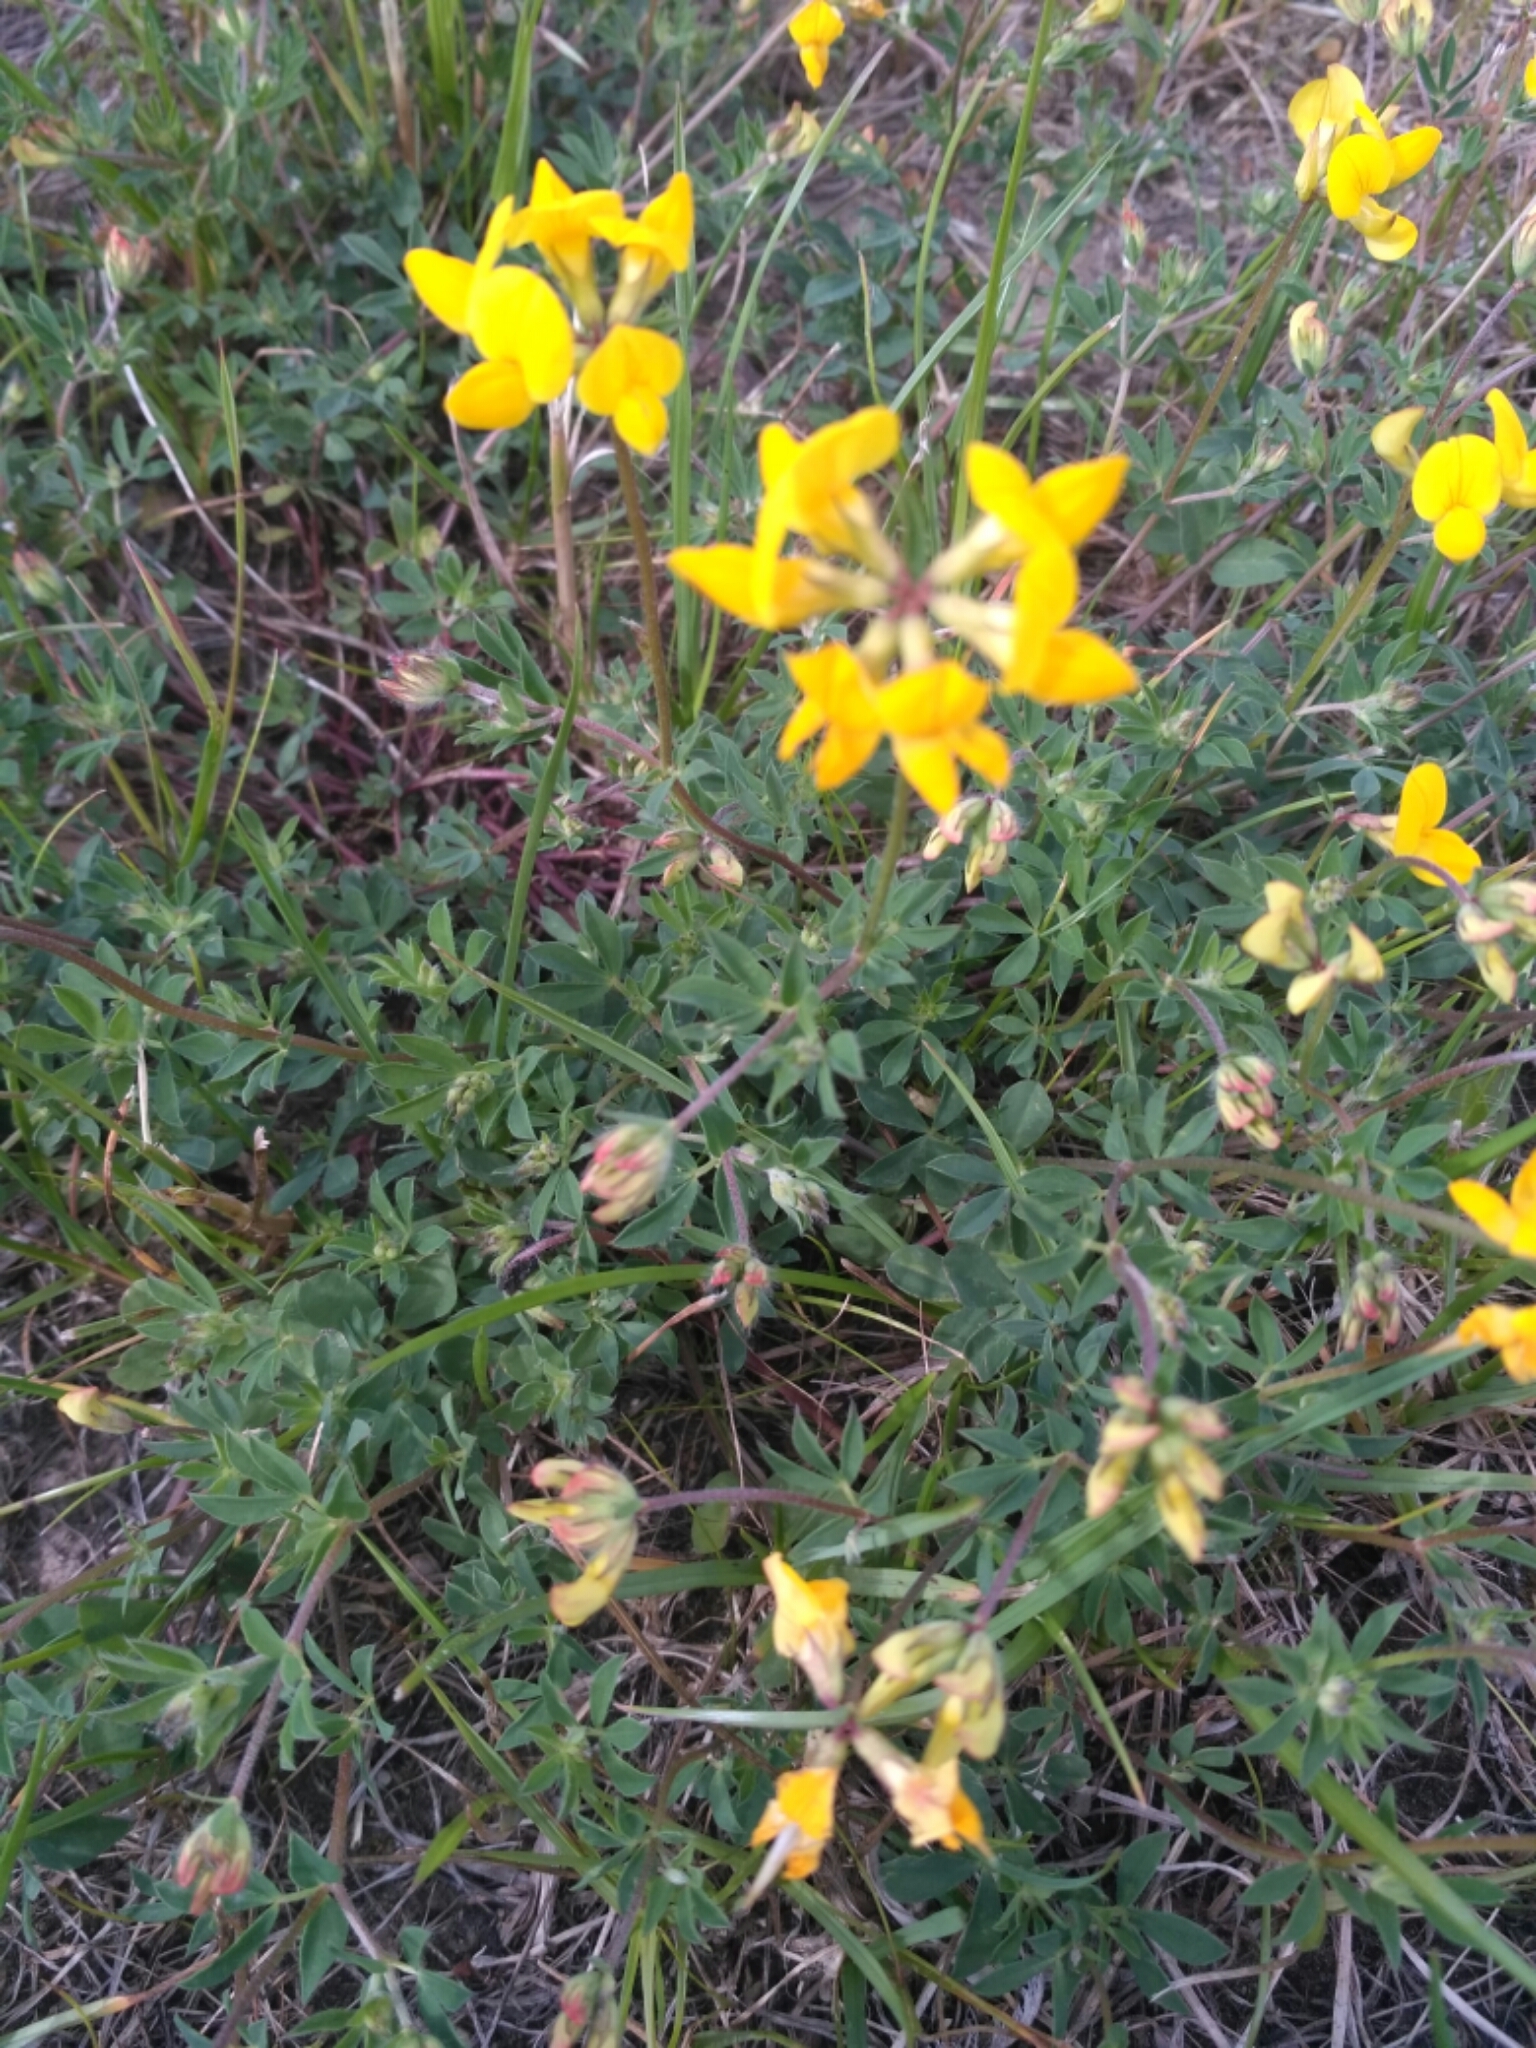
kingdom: Plantae
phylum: Tracheophyta
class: Magnoliopsida
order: Fabales
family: Fabaceae
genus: Lotus
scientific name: Lotus corniculatus
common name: Common bird's-foot-trefoil
